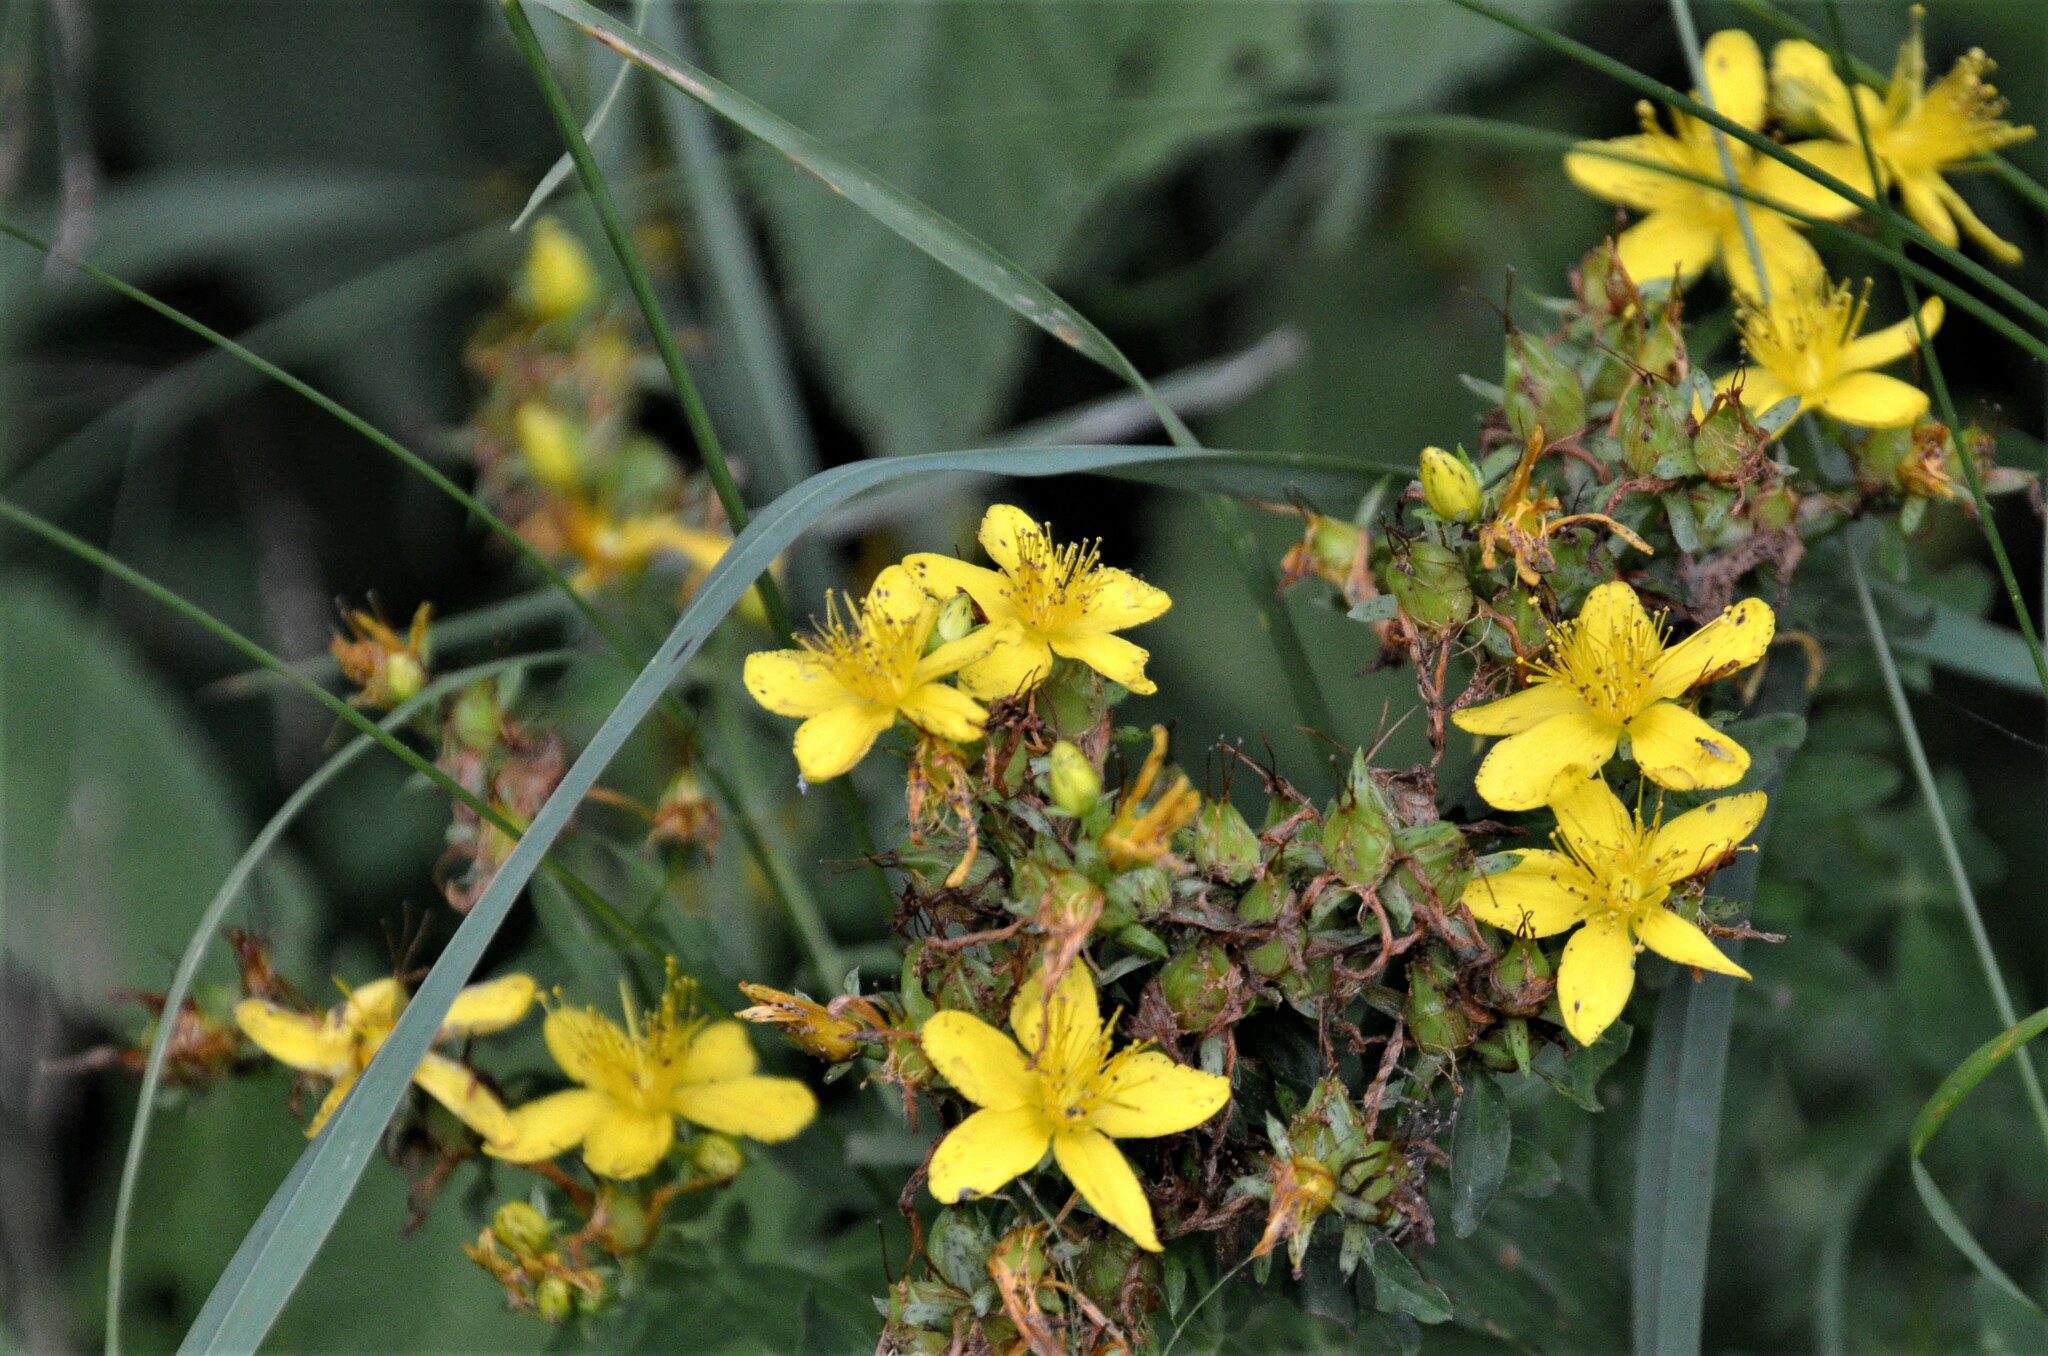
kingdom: Plantae
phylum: Tracheophyta
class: Magnoliopsida
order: Malpighiales
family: Hypericaceae
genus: Hypericum
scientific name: Hypericum perforatum
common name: Common st. johnswort
